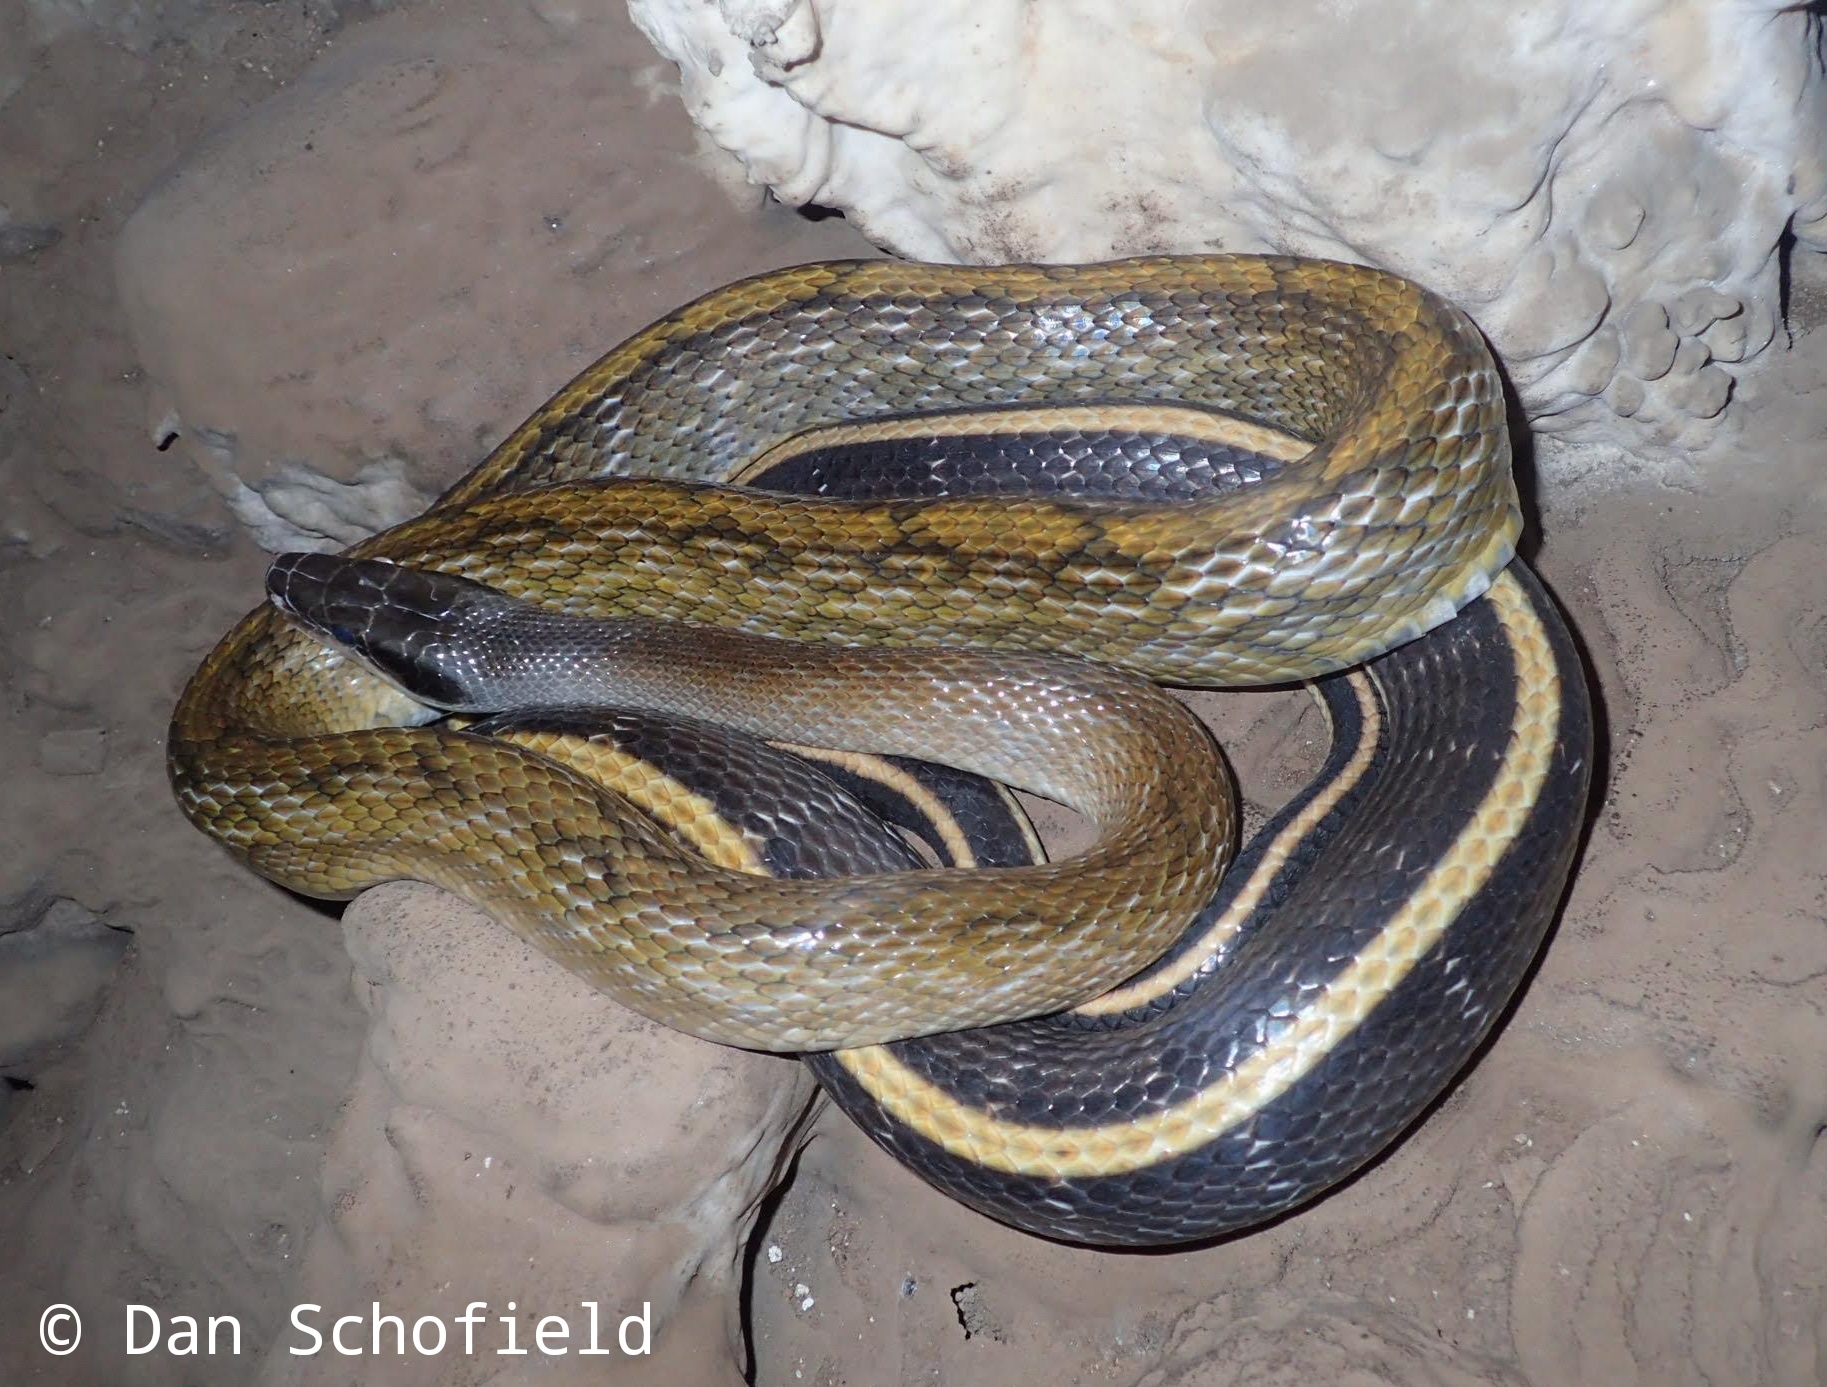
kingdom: Animalia
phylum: Chordata
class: Squamata
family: Colubridae
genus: Elaphe
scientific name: Elaphe taeniura
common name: Beauty snake
